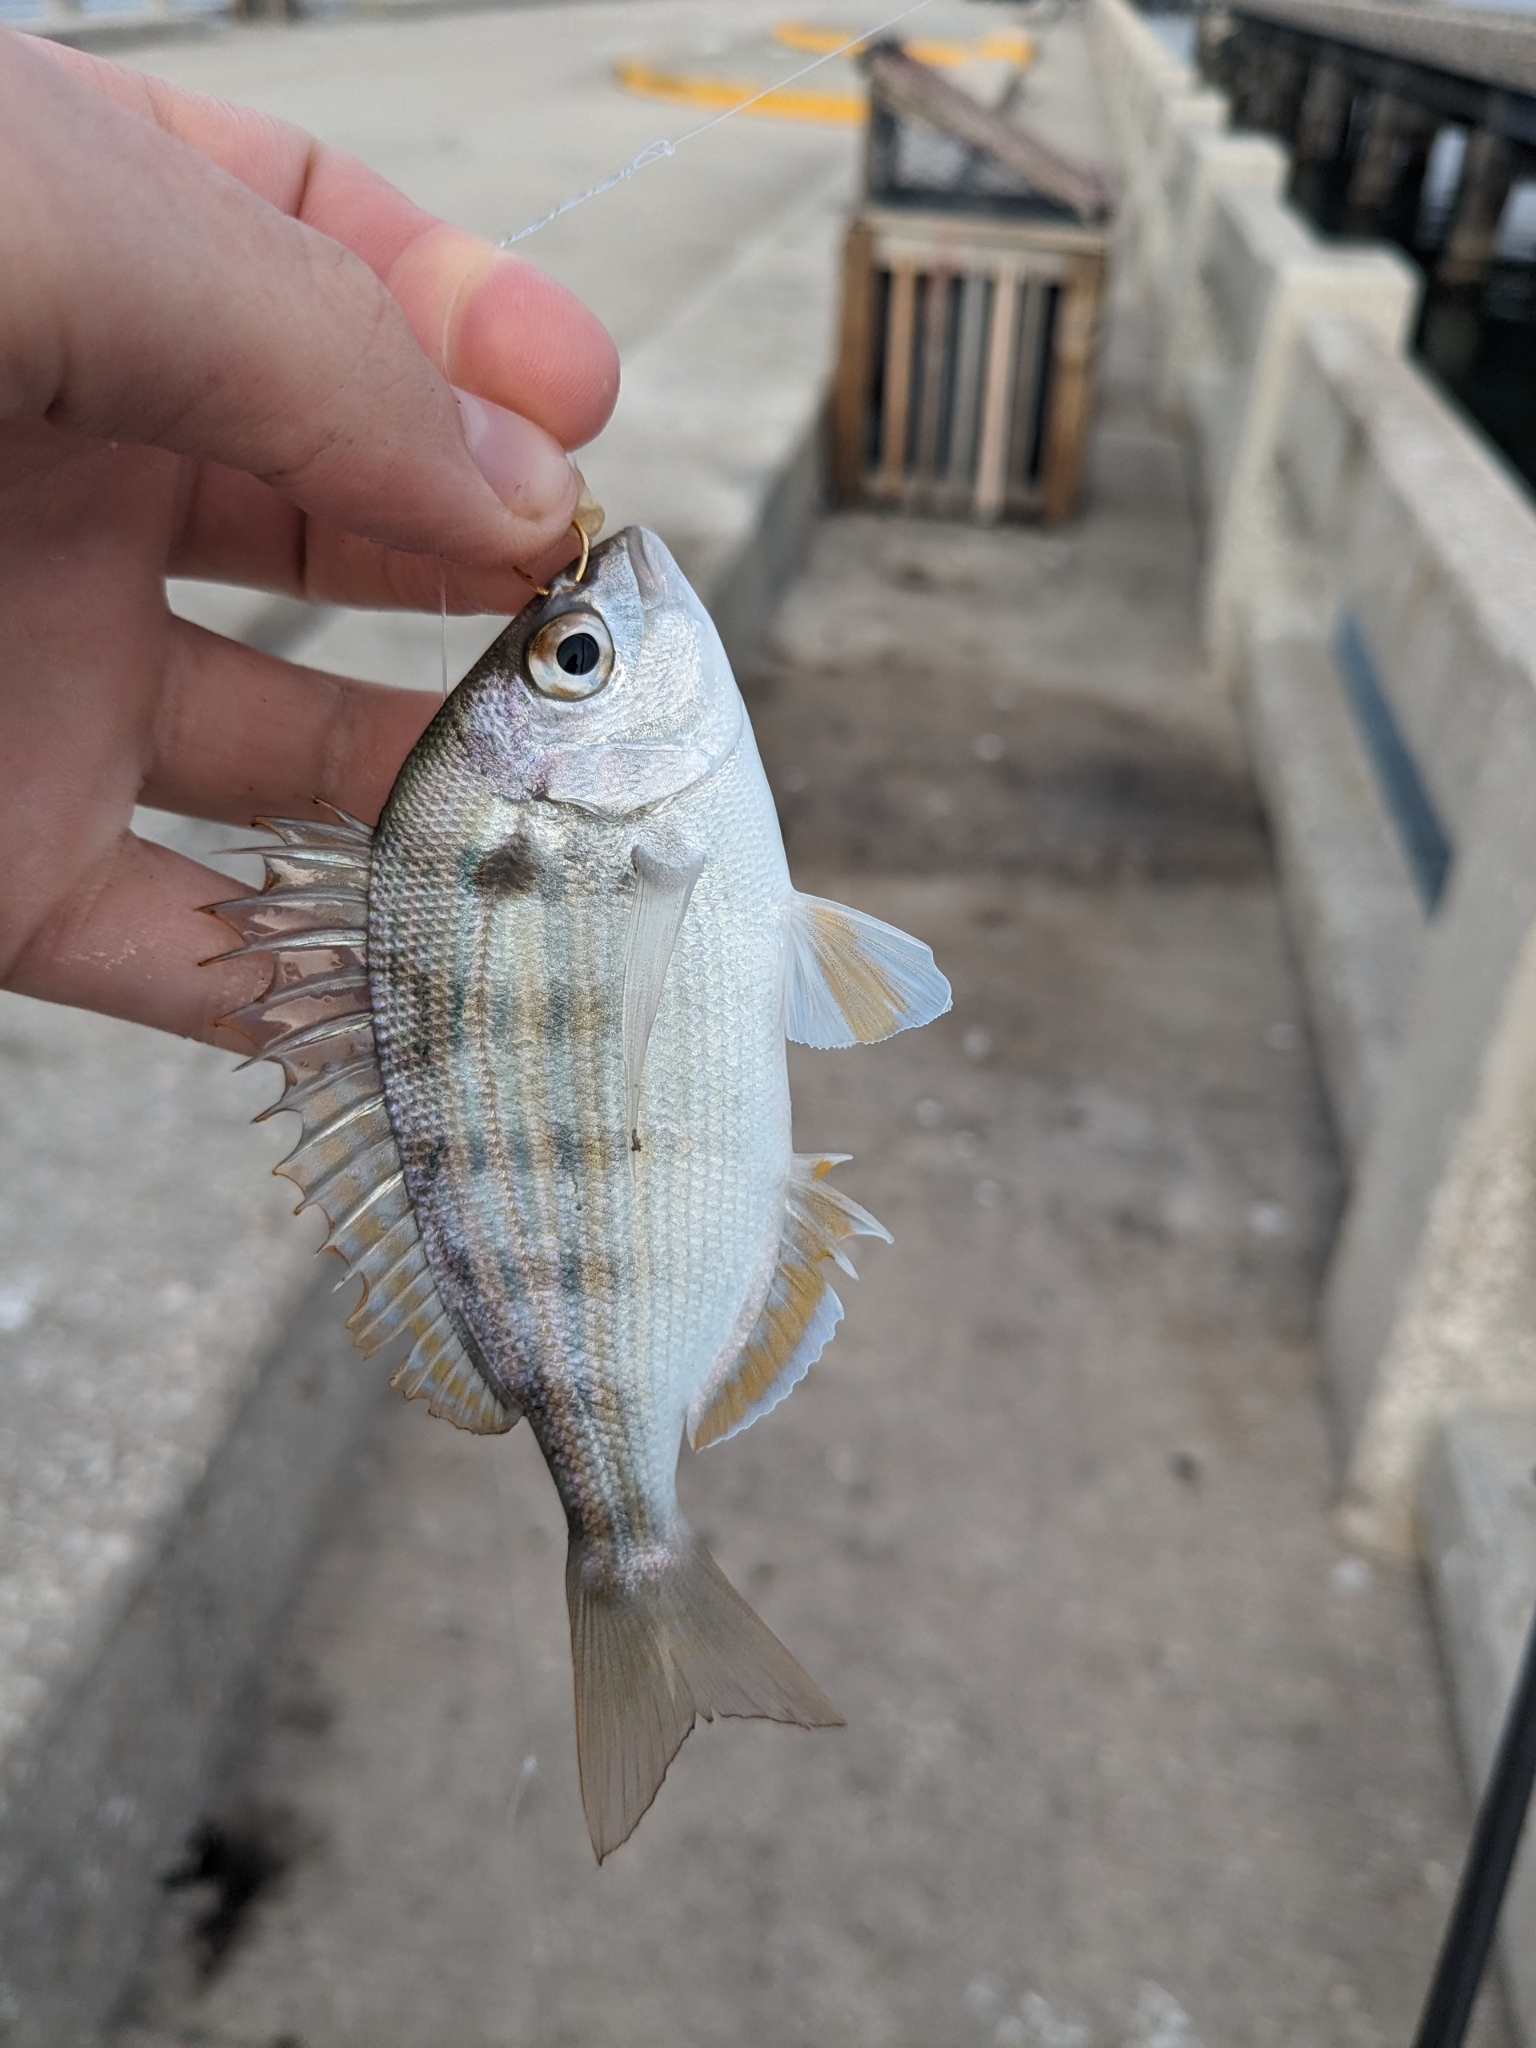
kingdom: Animalia
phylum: Chordata
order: Perciformes
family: Sparidae
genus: Lagodon
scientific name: Lagodon rhomboides
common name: Pinfish
